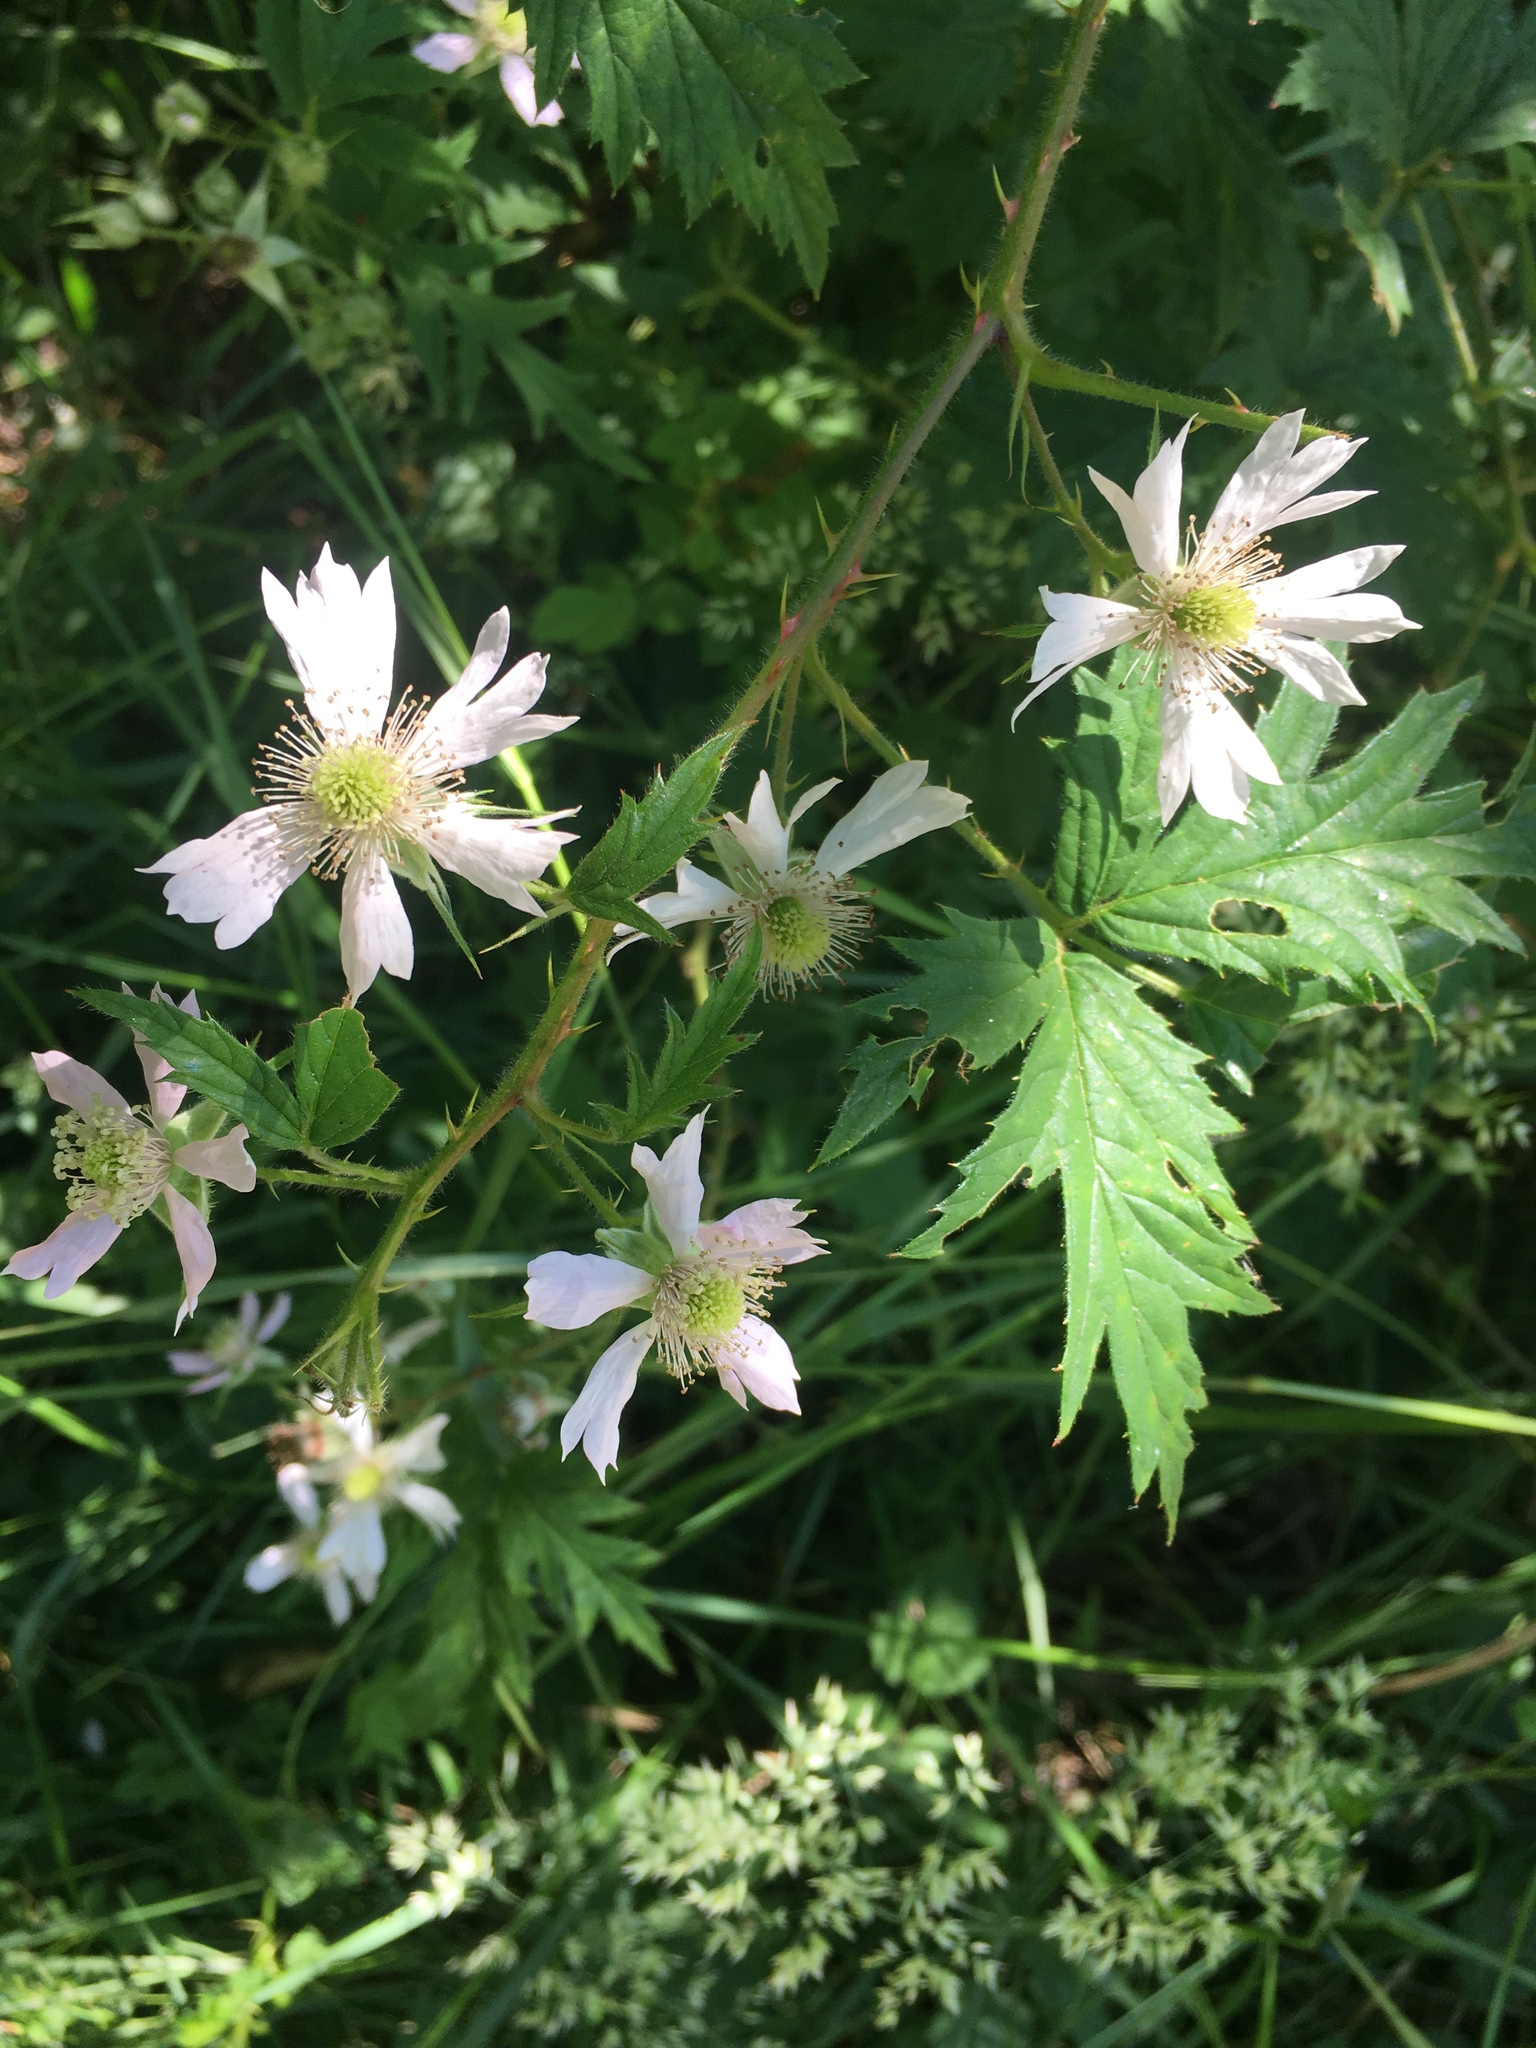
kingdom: Plantae
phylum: Tracheophyta
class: Magnoliopsida
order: Rosales
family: Rosaceae
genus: Rubus
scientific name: Rubus laciniatus
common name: Evergreen blackberry
